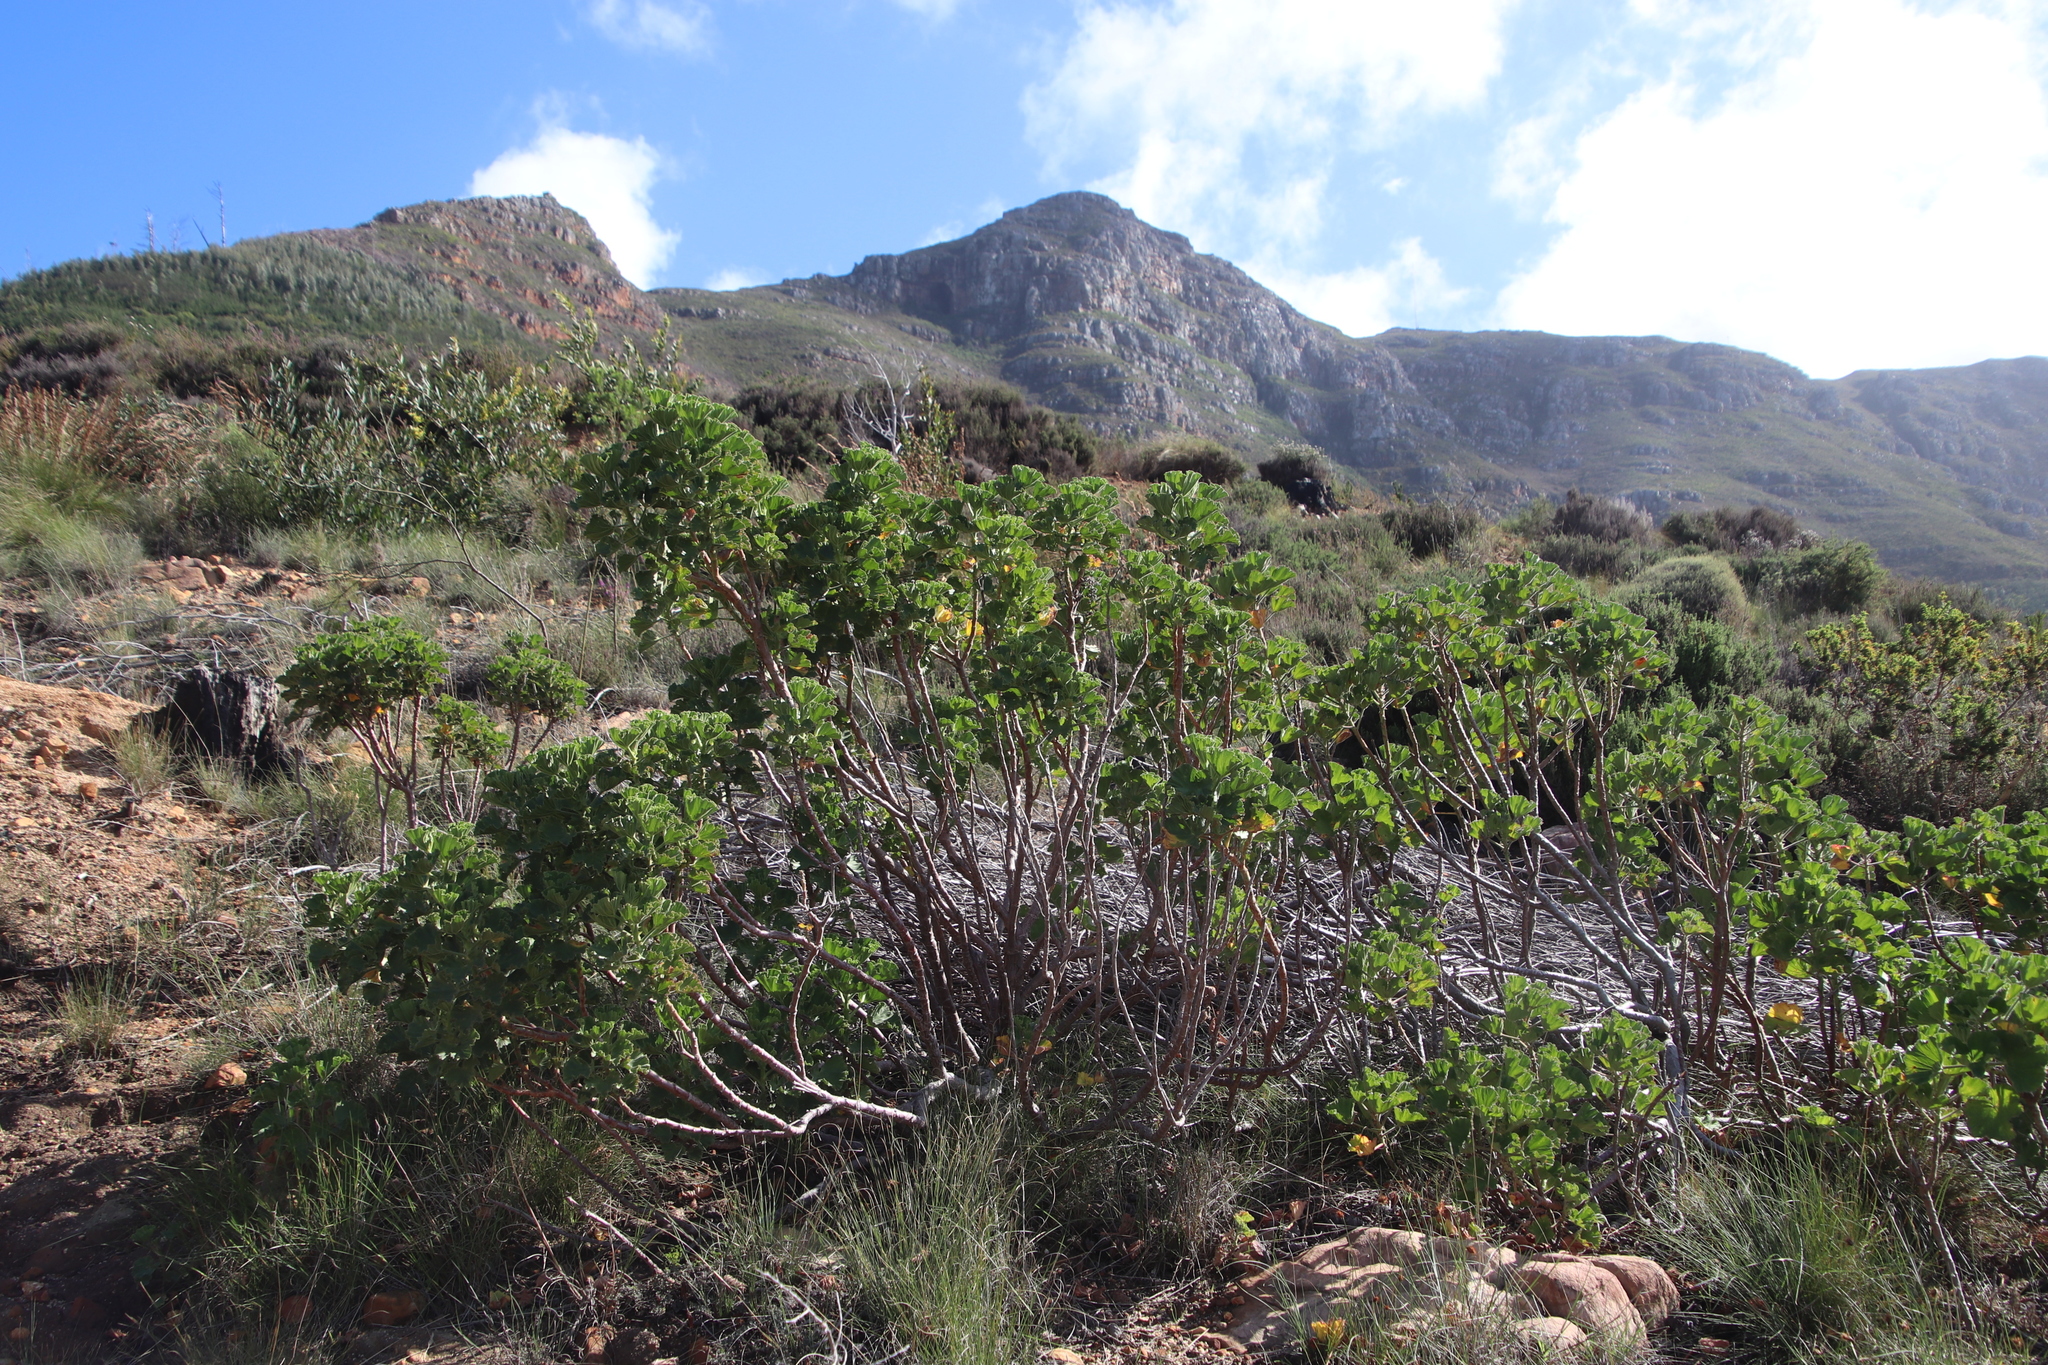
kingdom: Plantae
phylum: Tracheophyta
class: Magnoliopsida
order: Geraniales
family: Geraniaceae
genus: Pelargonium
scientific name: Pelargonium cucullatum
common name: Tree pelargonium
